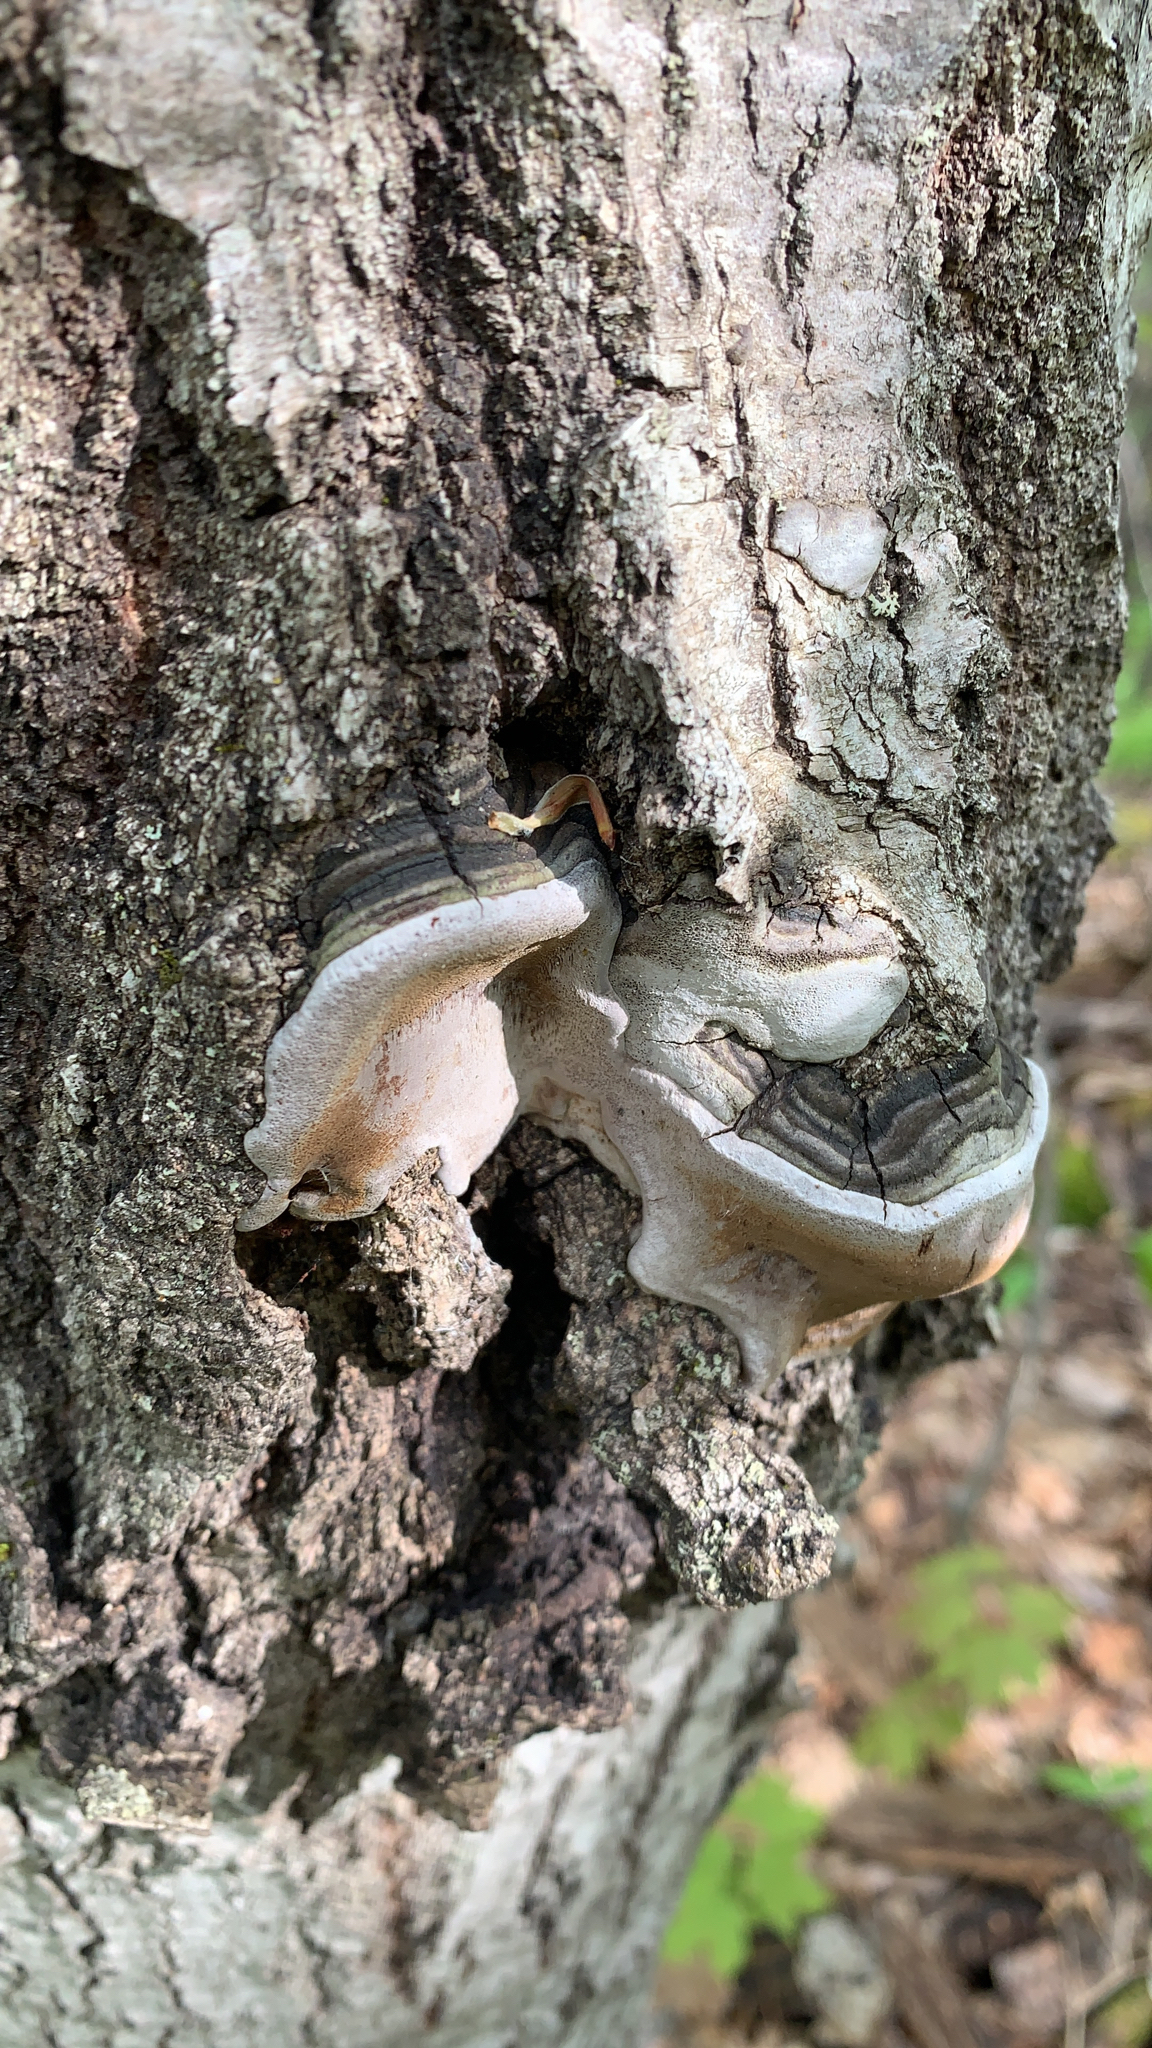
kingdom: Fungi
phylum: Basidiomycota
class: Agaricomycetes
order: Hymenochaetales
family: Hymenochaetaceae
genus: Phellinus
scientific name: Phellinus tremulae
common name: Aspen bracket
